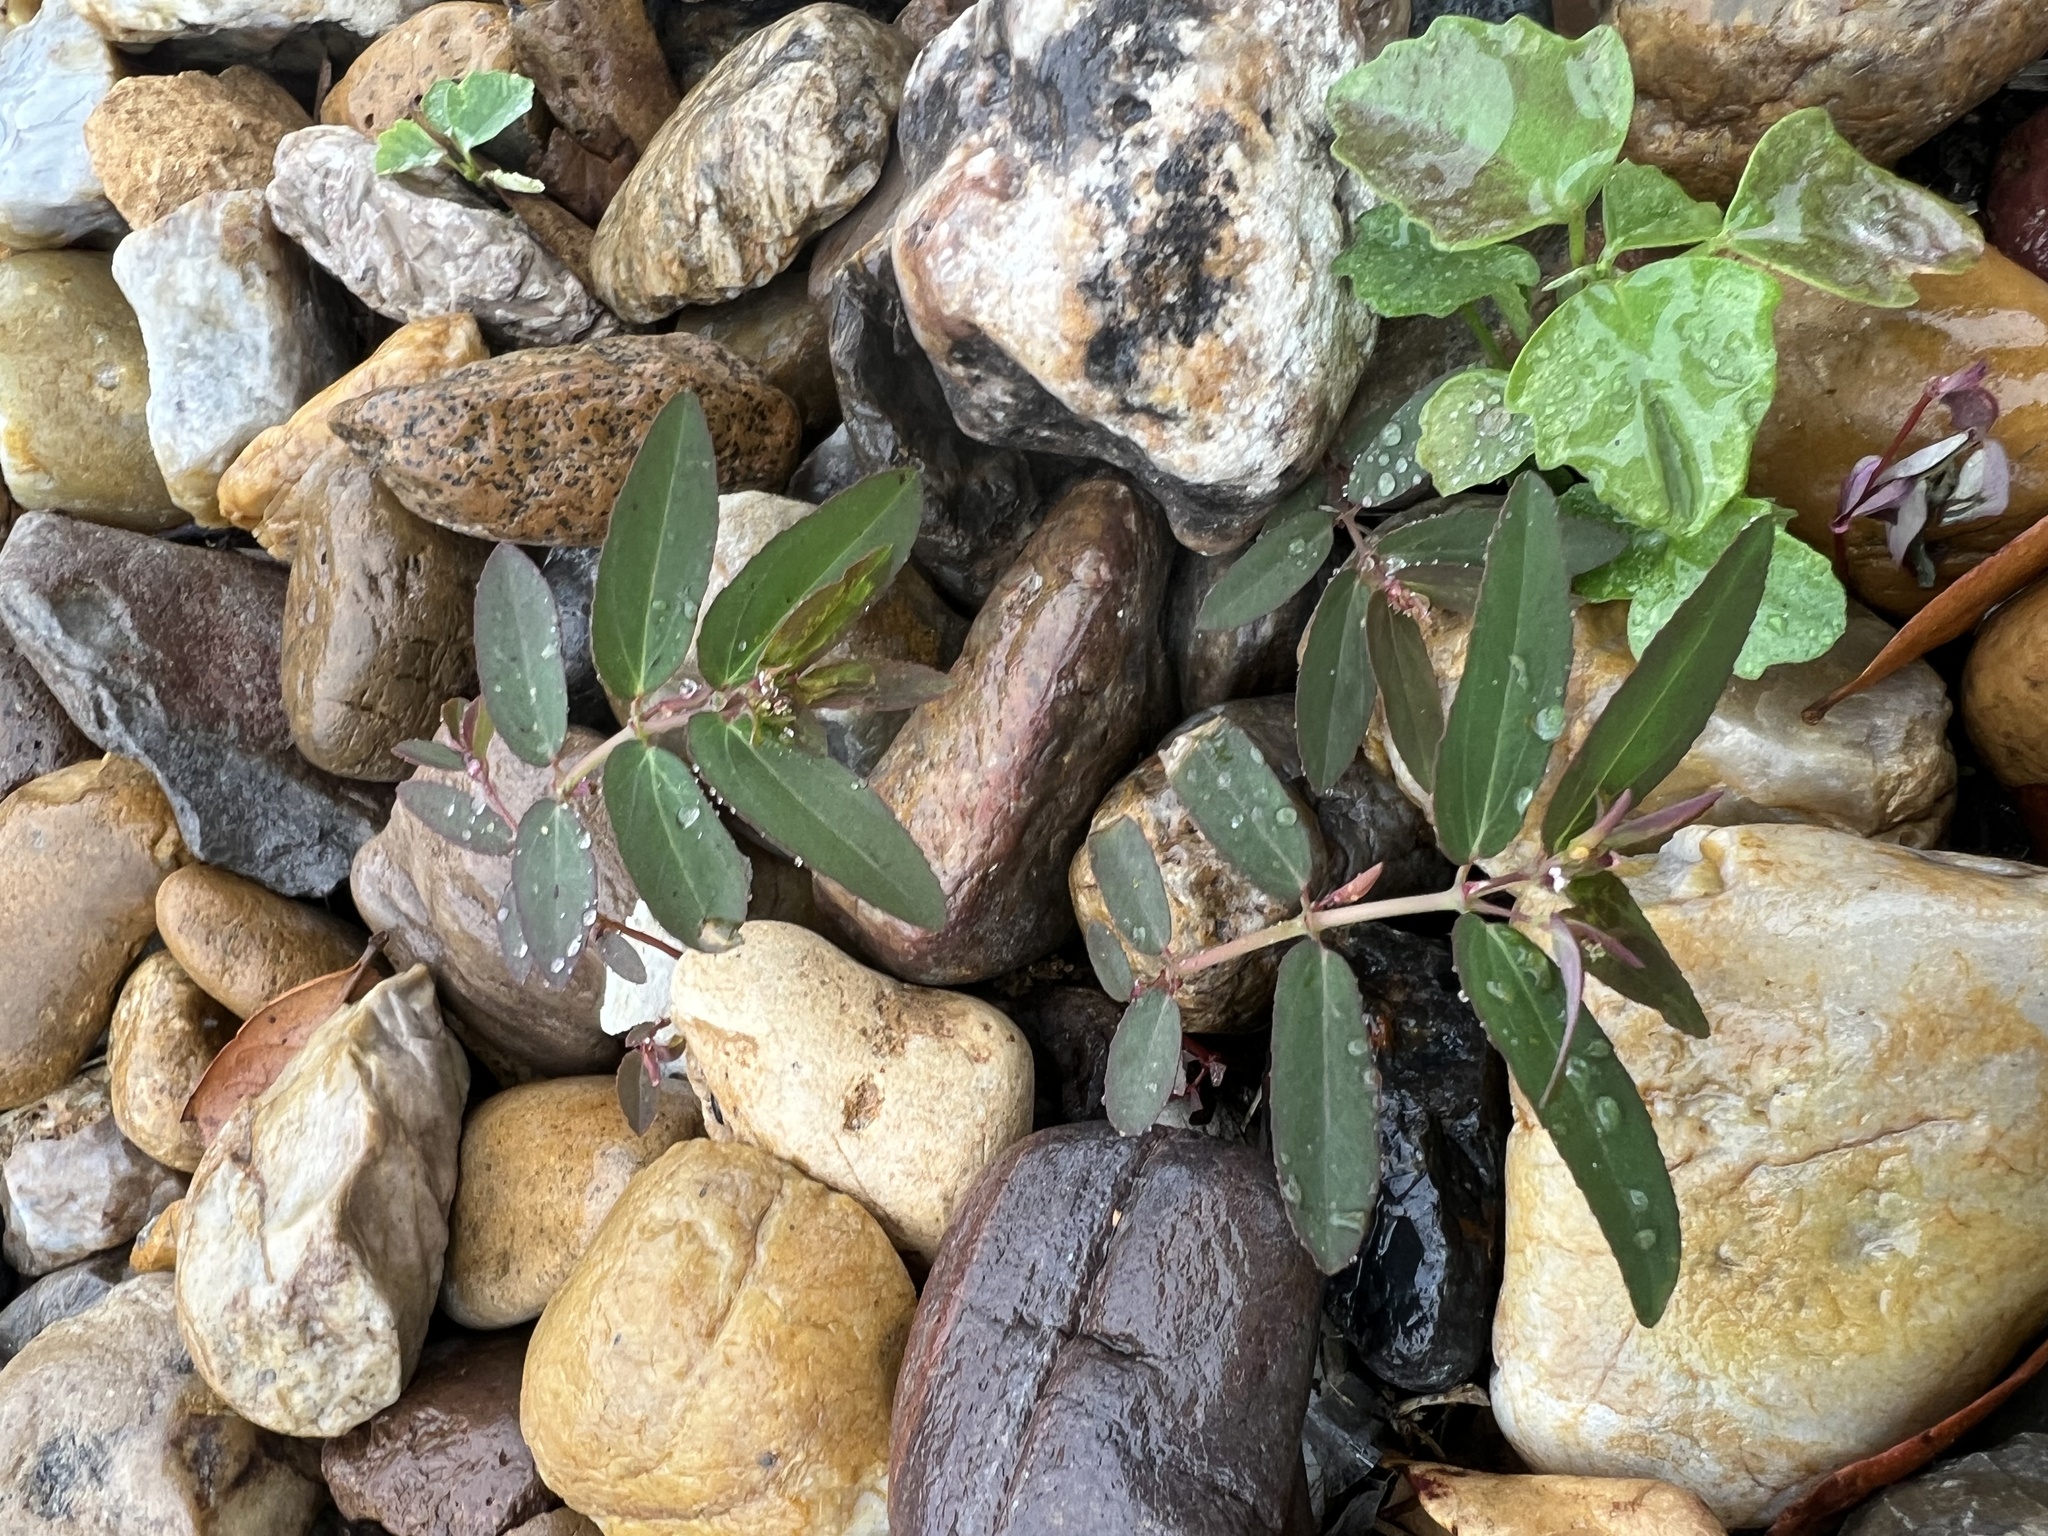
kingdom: Plantae
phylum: Tracheophyta
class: Magnoliopsida
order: Malpighiales
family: Euphorbiaceae
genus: Euphorbia
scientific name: Euphorbia hypericifolia
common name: Graceful sandmat
